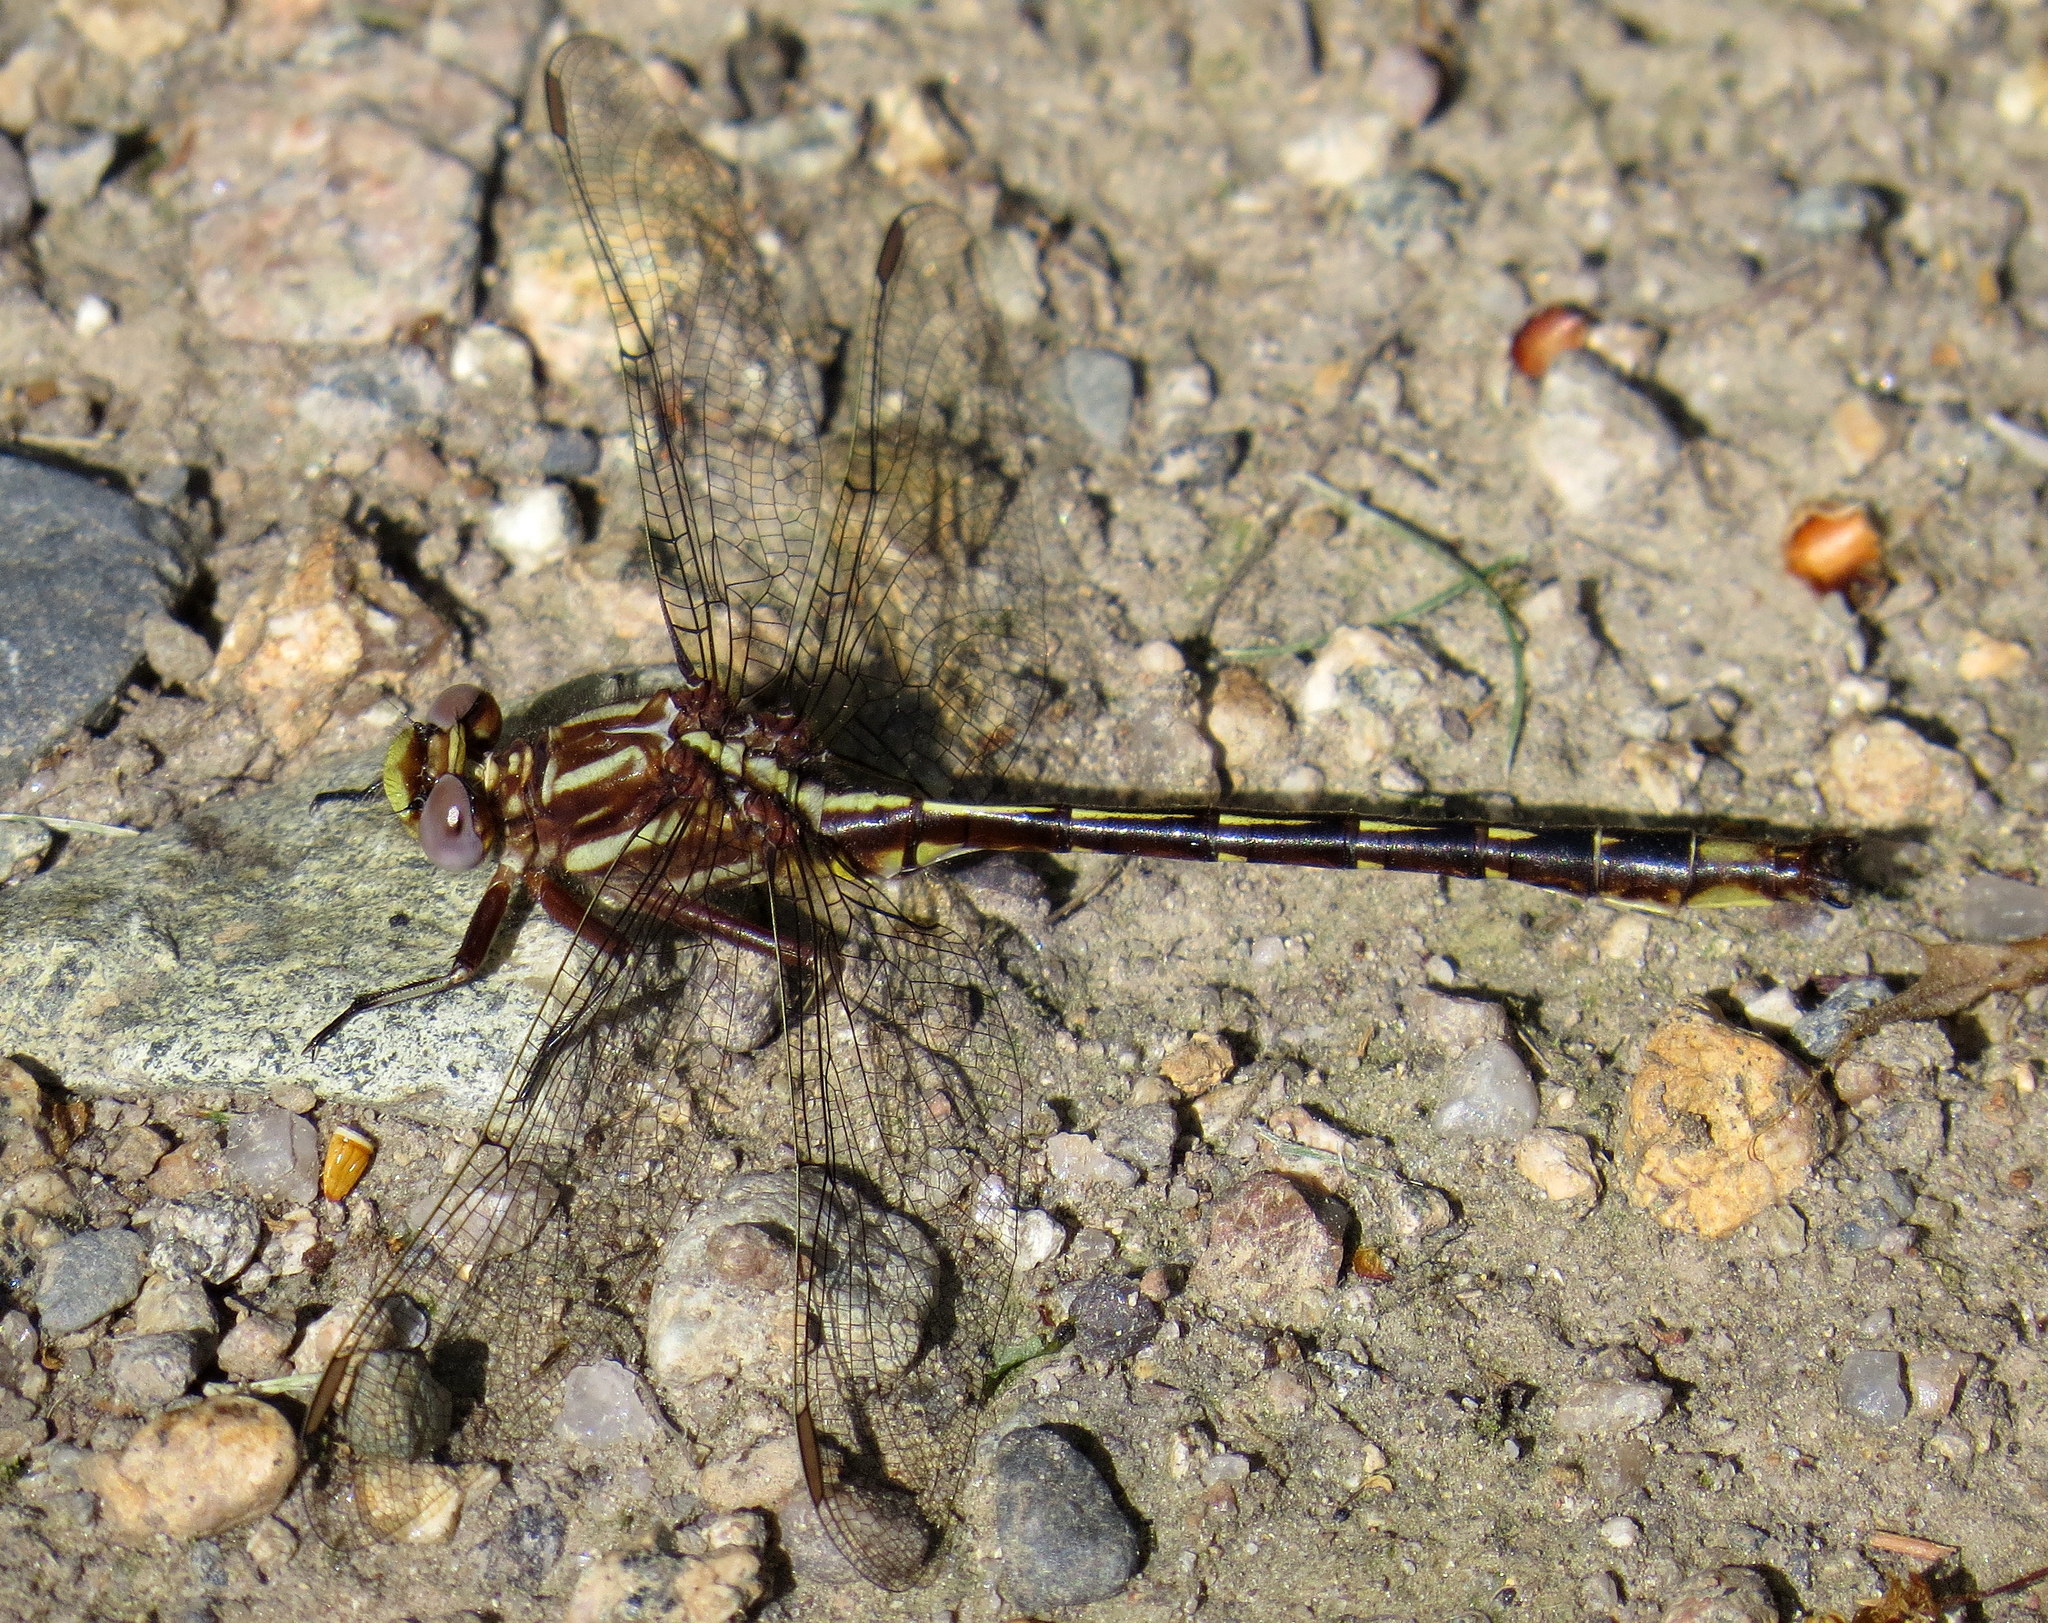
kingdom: Animalia
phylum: Arthropoda
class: Insecta
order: Odonata
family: Gomphidae
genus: Phanogomphus
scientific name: Phanogomphus lividus
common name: Ashy clubtail
